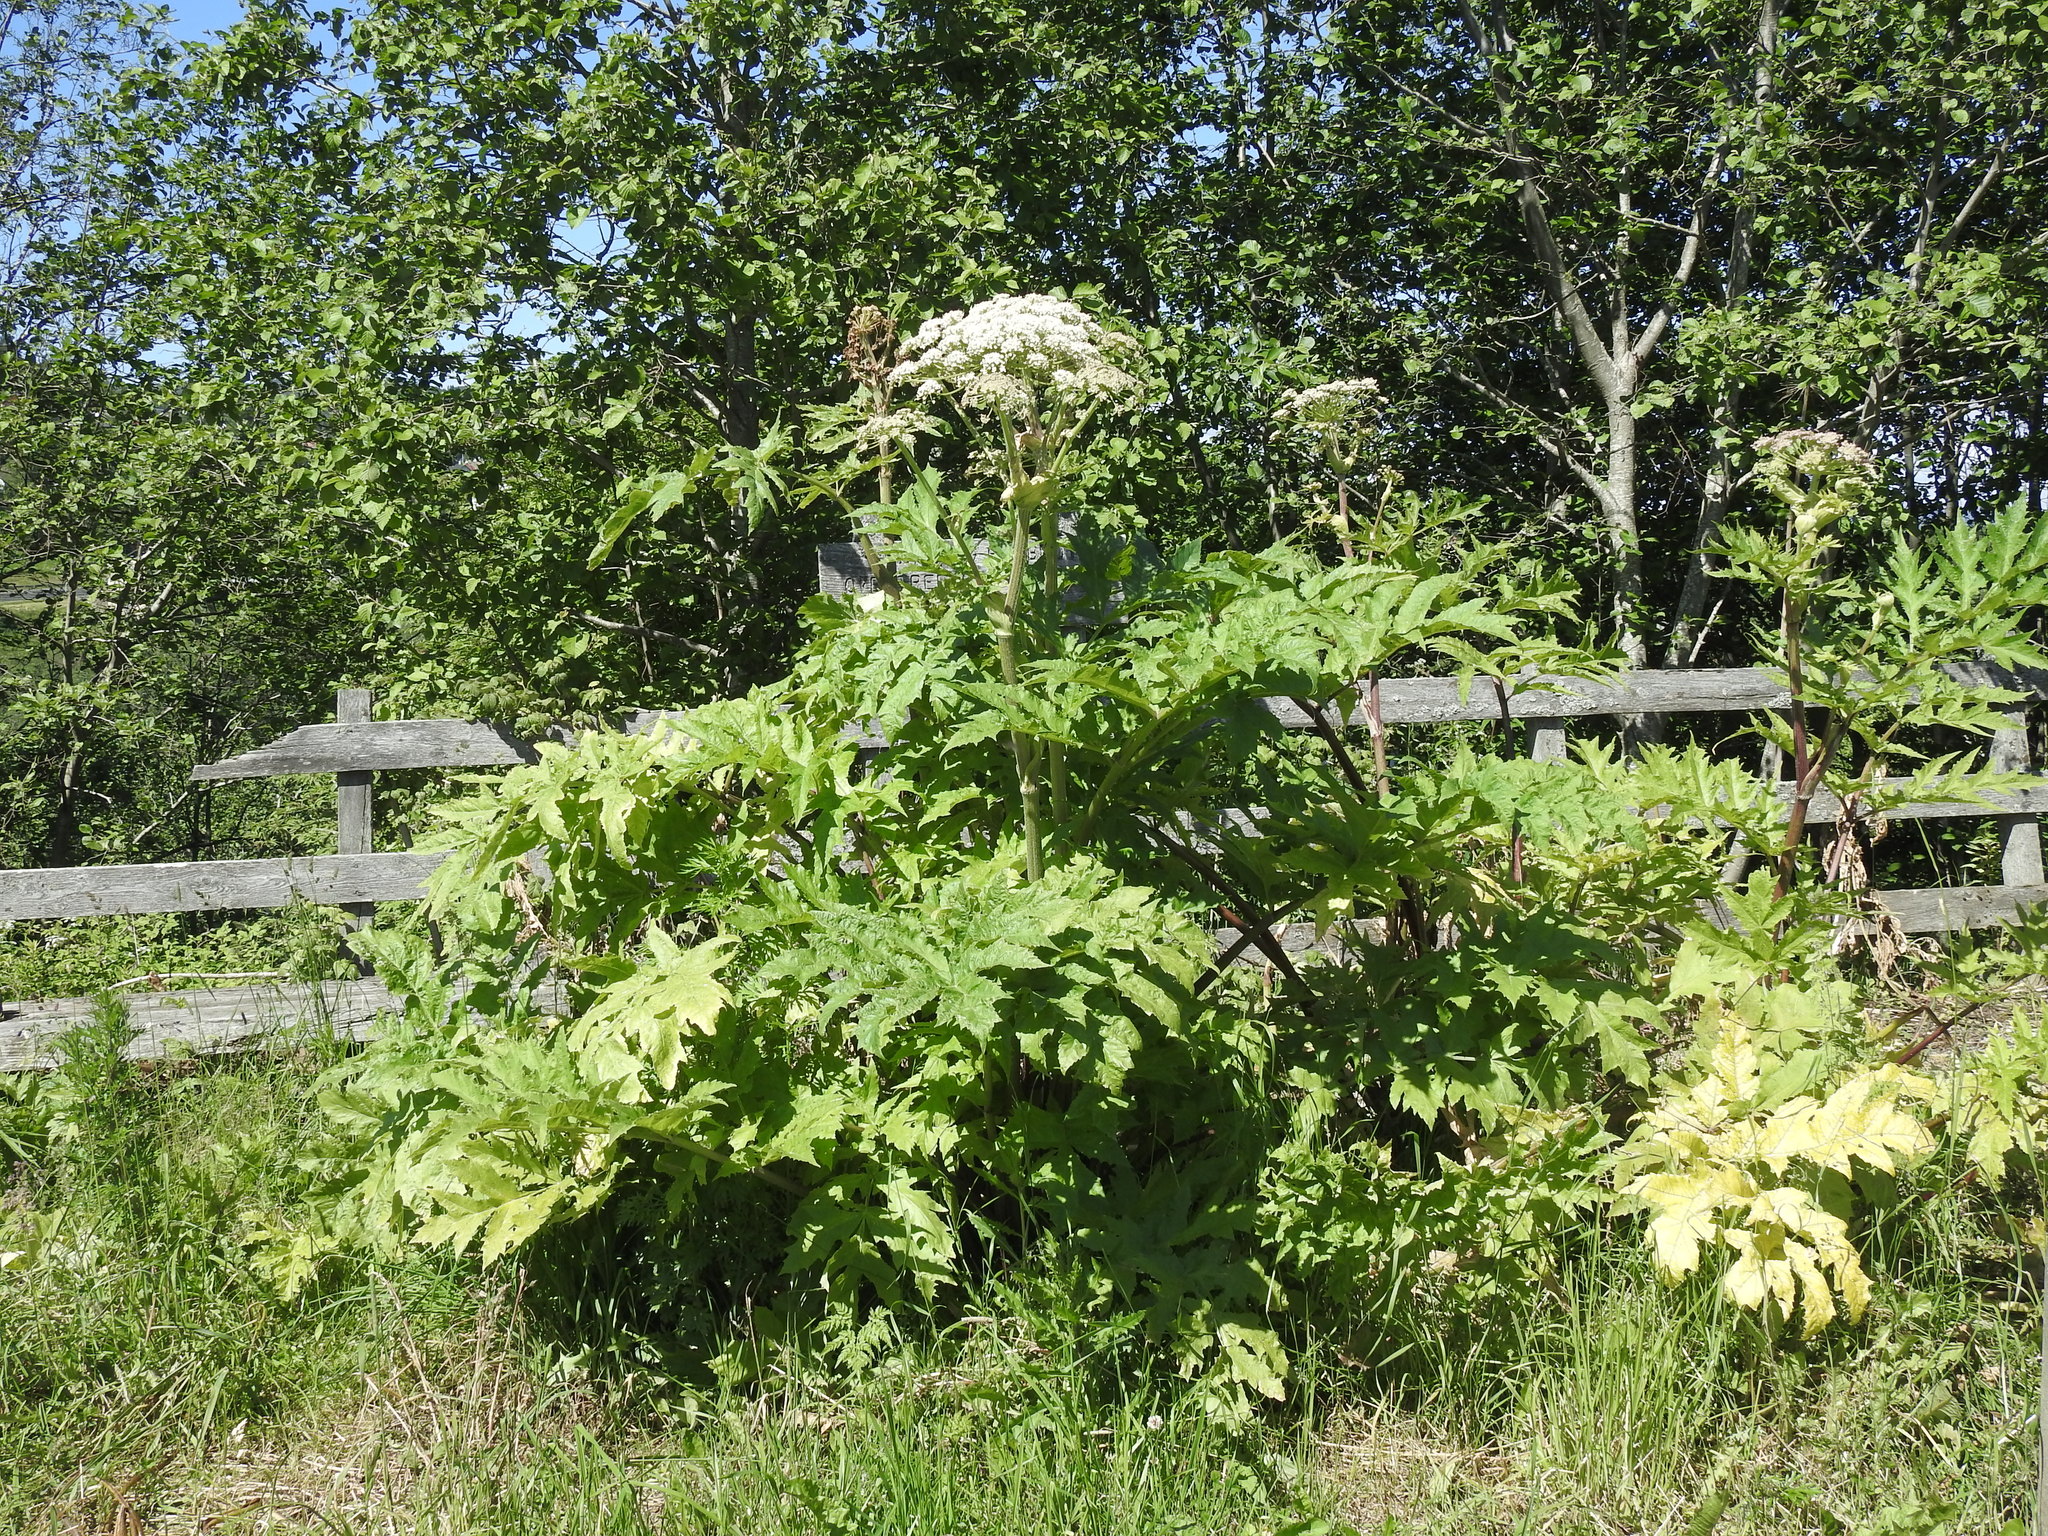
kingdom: Plantae
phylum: Tracheophyta
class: Magnoliopsida
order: Apiales
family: Apiaceae
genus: Heracleum
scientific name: Heracleum mantegazzianum
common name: Giant hogweed
